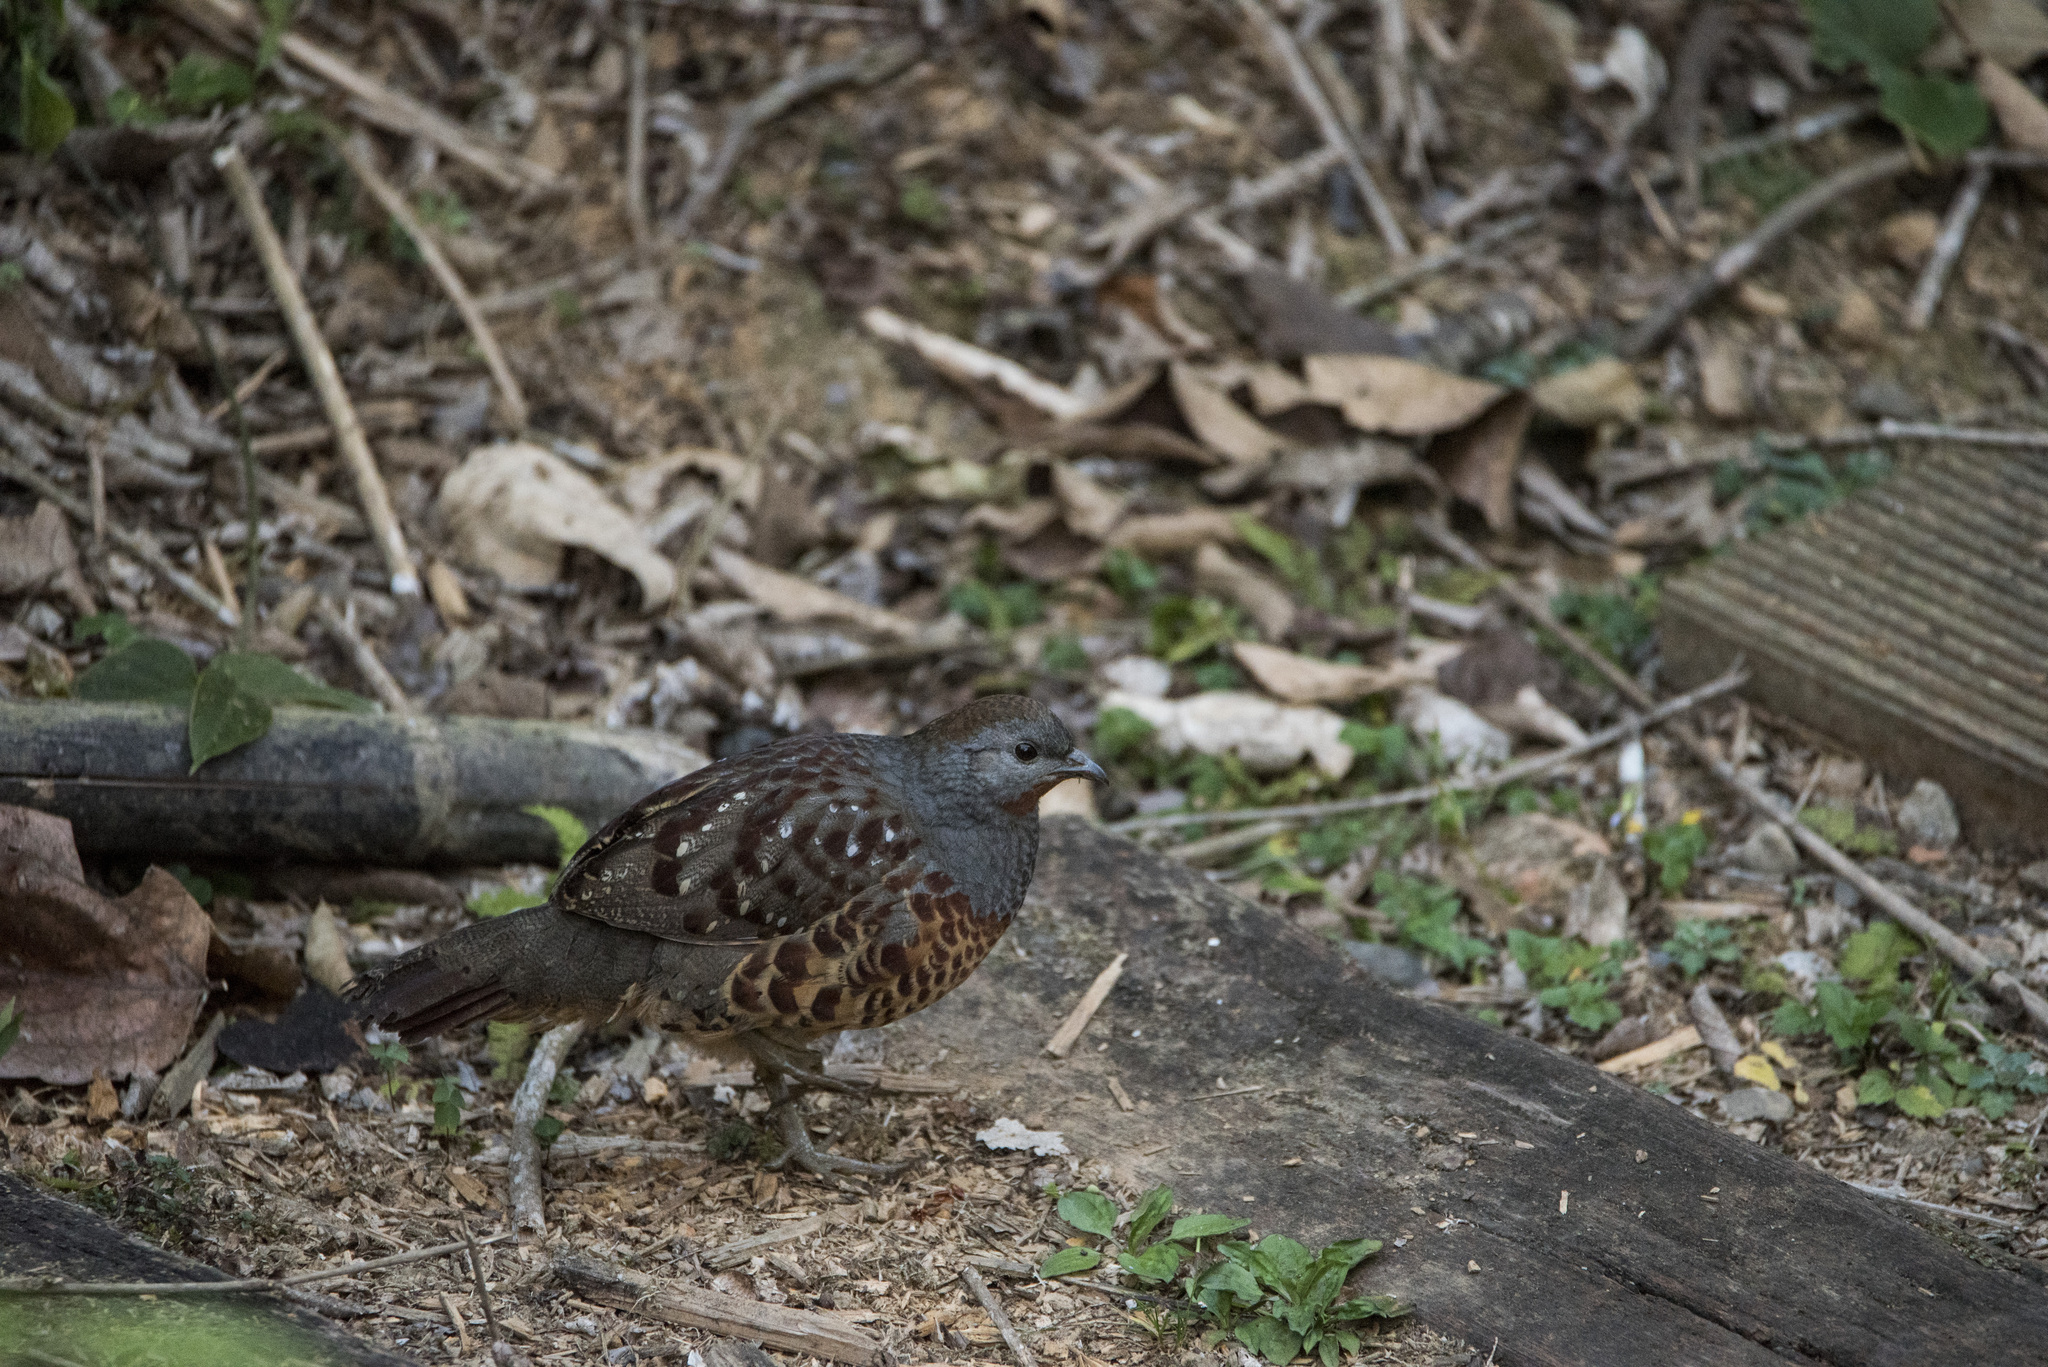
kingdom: Animalia
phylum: Chordata
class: Aves
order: Galliformes
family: Phasianidae
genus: Bambusicola
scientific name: Bambusicola sonorivox
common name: Taiwan bamboo-partridge
